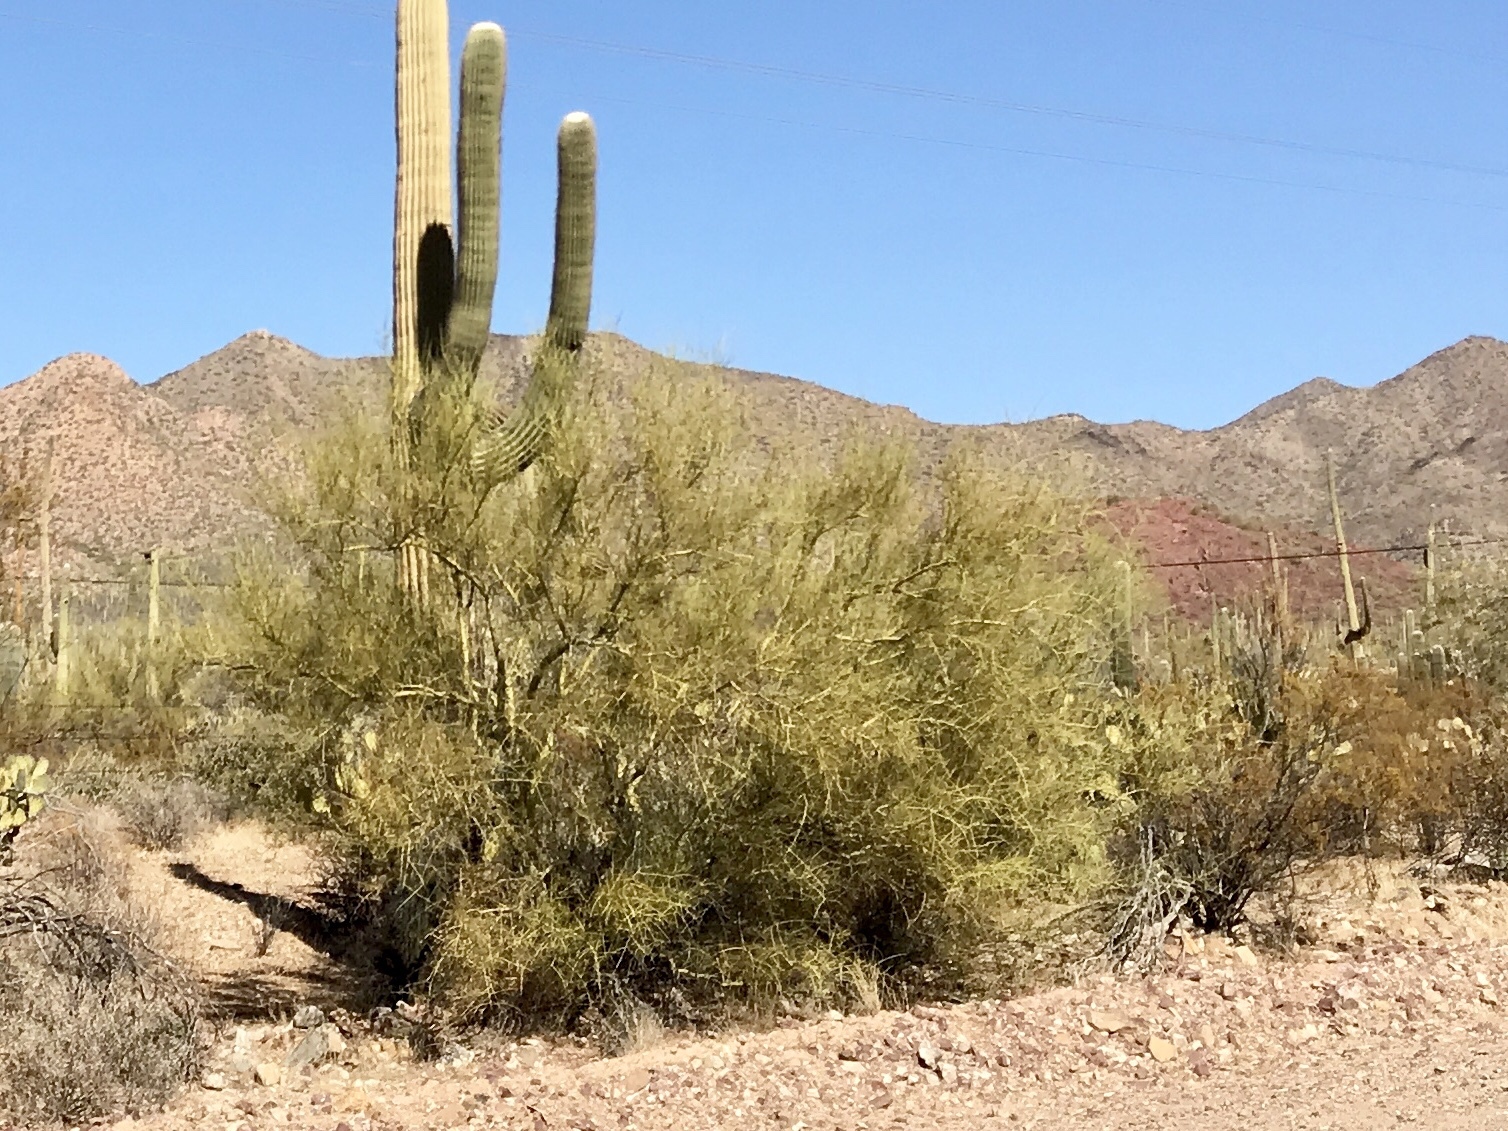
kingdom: Plantae
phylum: Tracheophyta
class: Magnoliopsida
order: Fabales
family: Fabaceae
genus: Parkinsonia
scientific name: Parkinsonia microphylla
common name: Yellow paloverde
